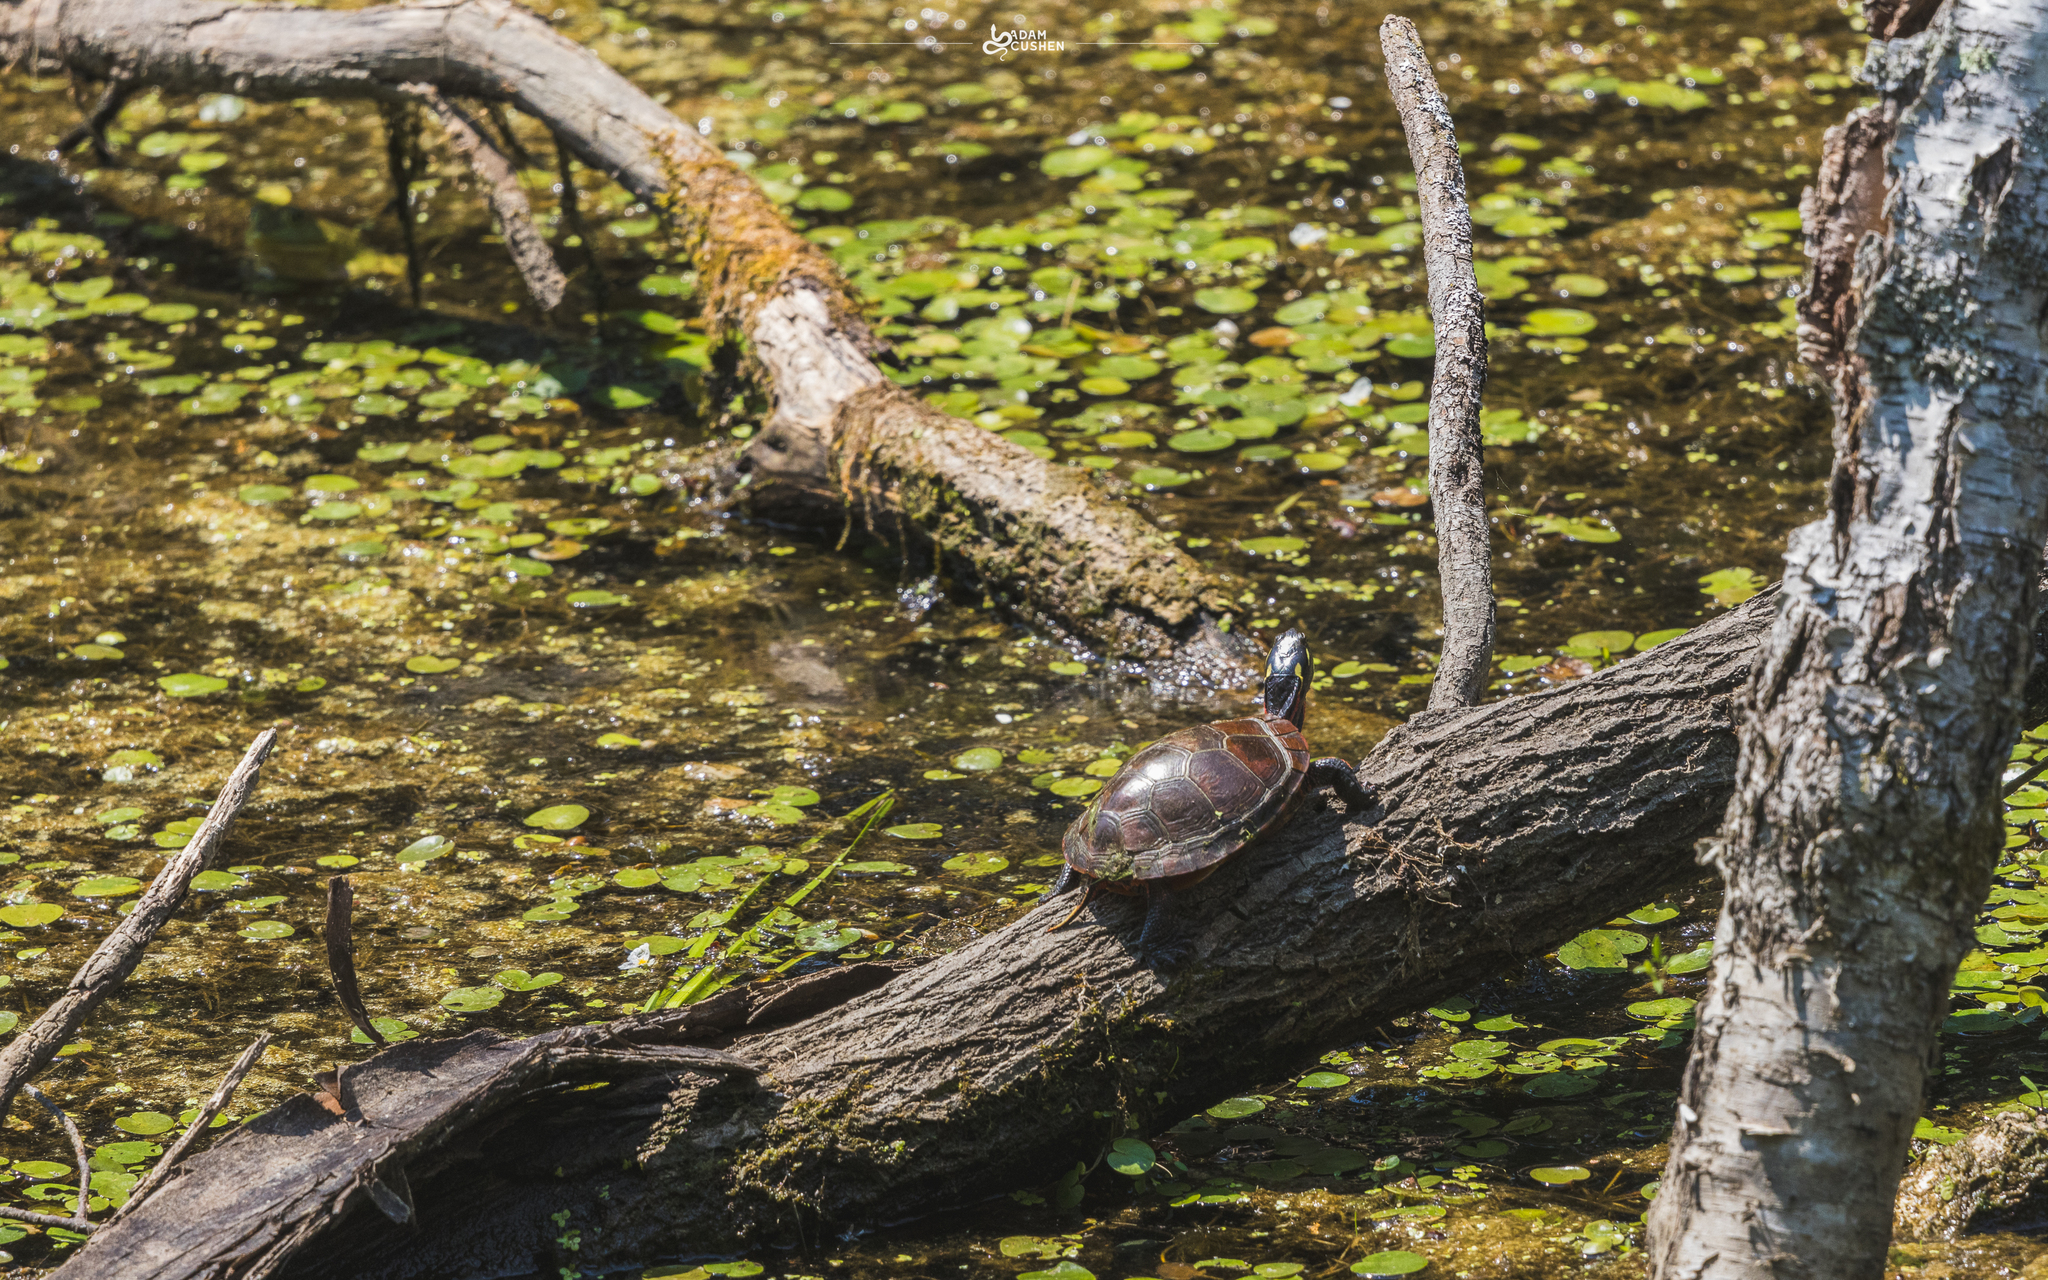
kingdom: Animalia
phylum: Chordata
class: Testudines
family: Emydidae
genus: Chrysemys
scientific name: Chrysemys picta
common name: Painted turtle
